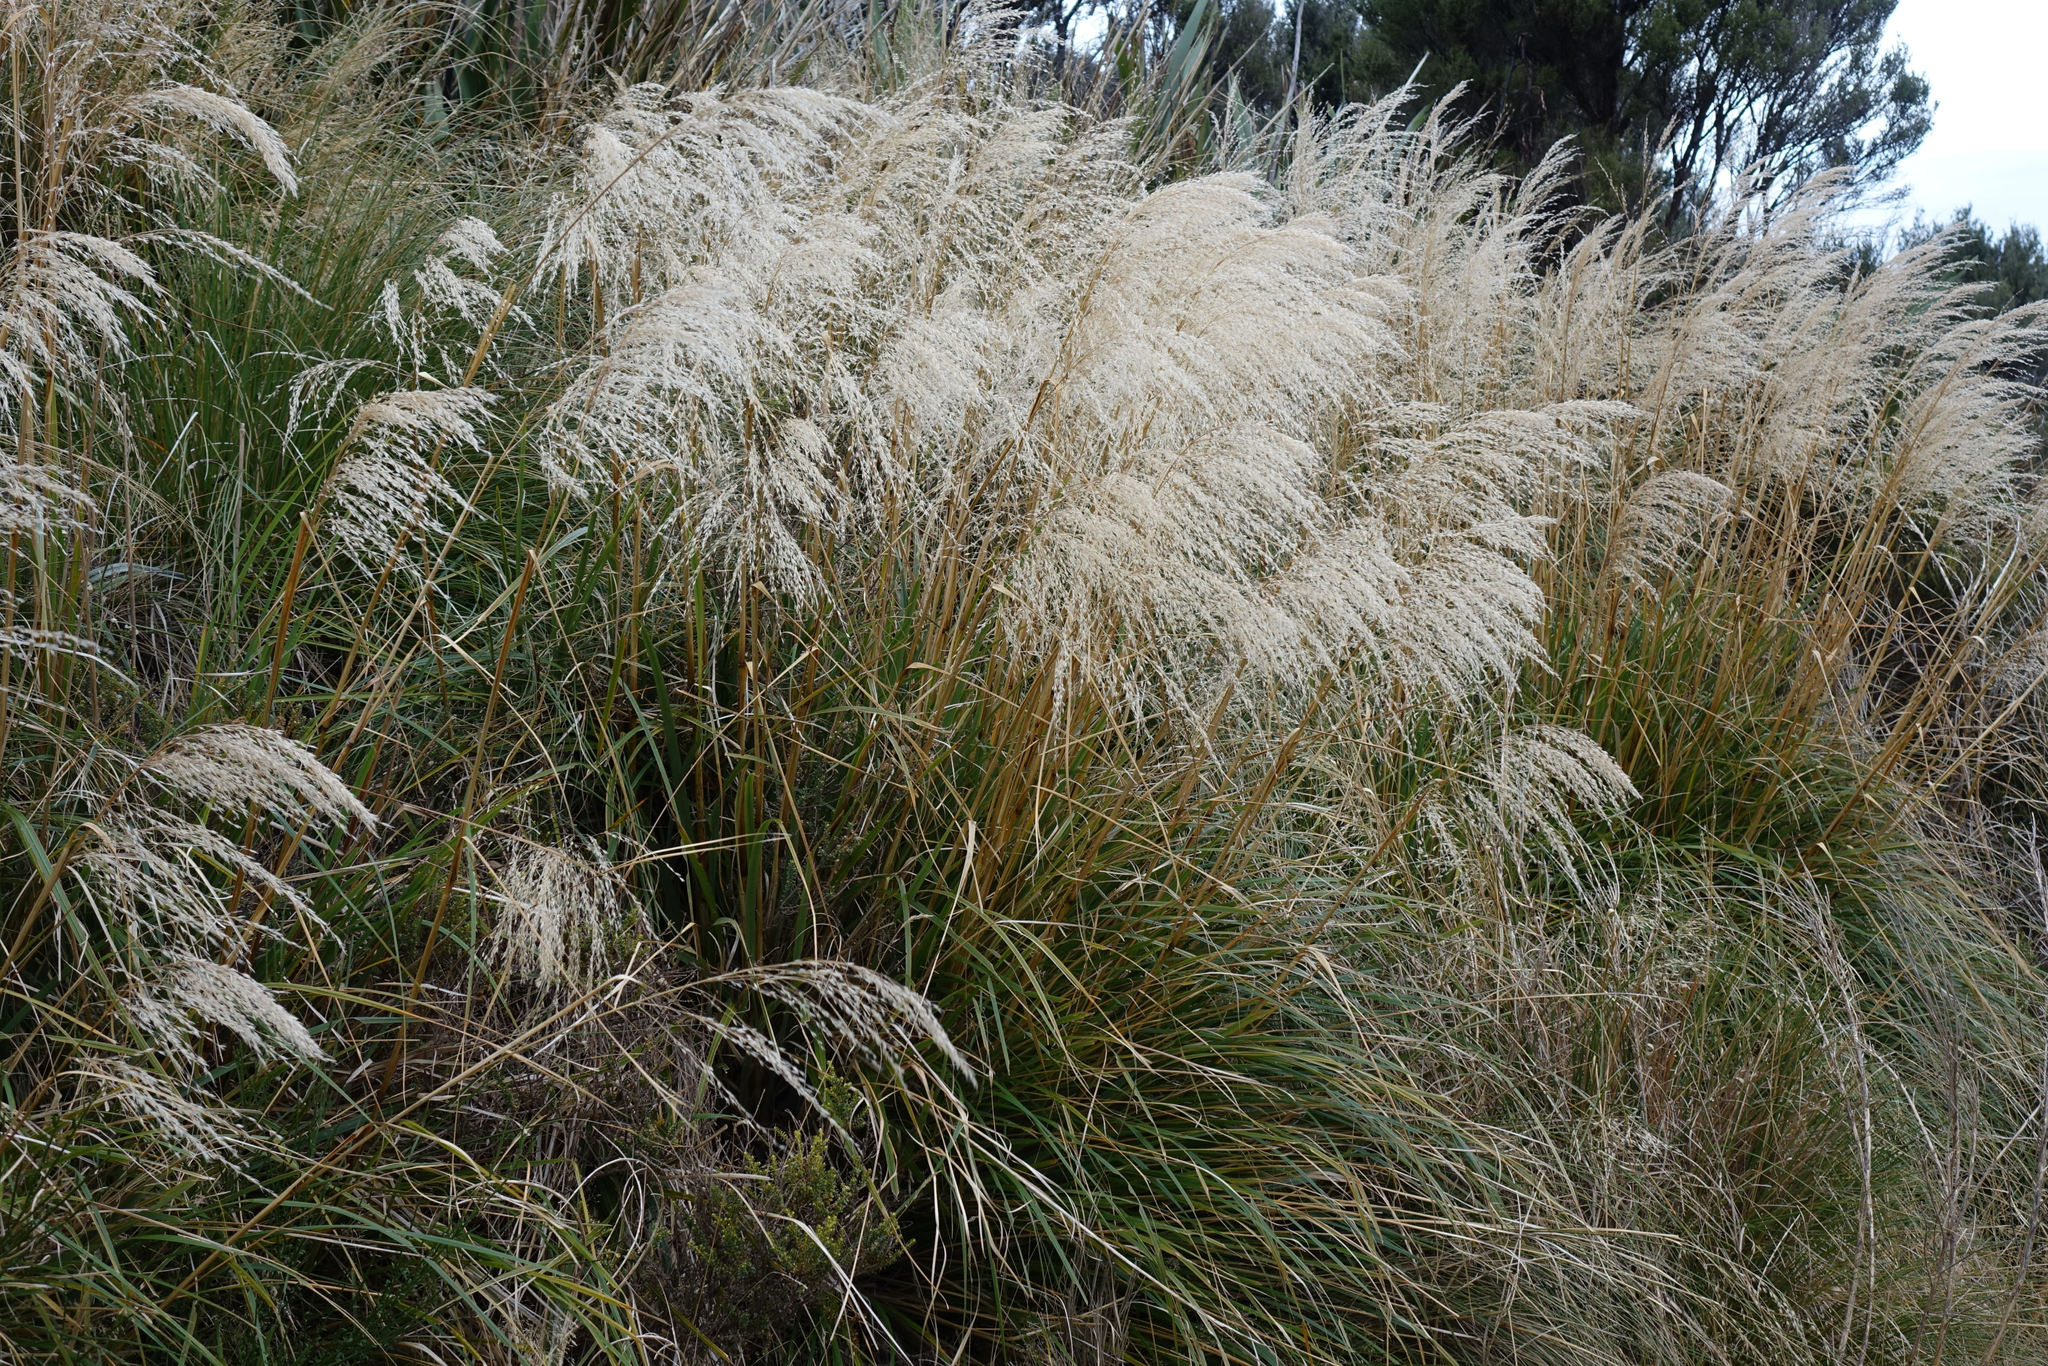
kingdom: Plantae
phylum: Tracheophyta
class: Liliopsida
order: Poales
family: Poaceae
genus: Chionochloa
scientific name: Chionochloa conspicua
